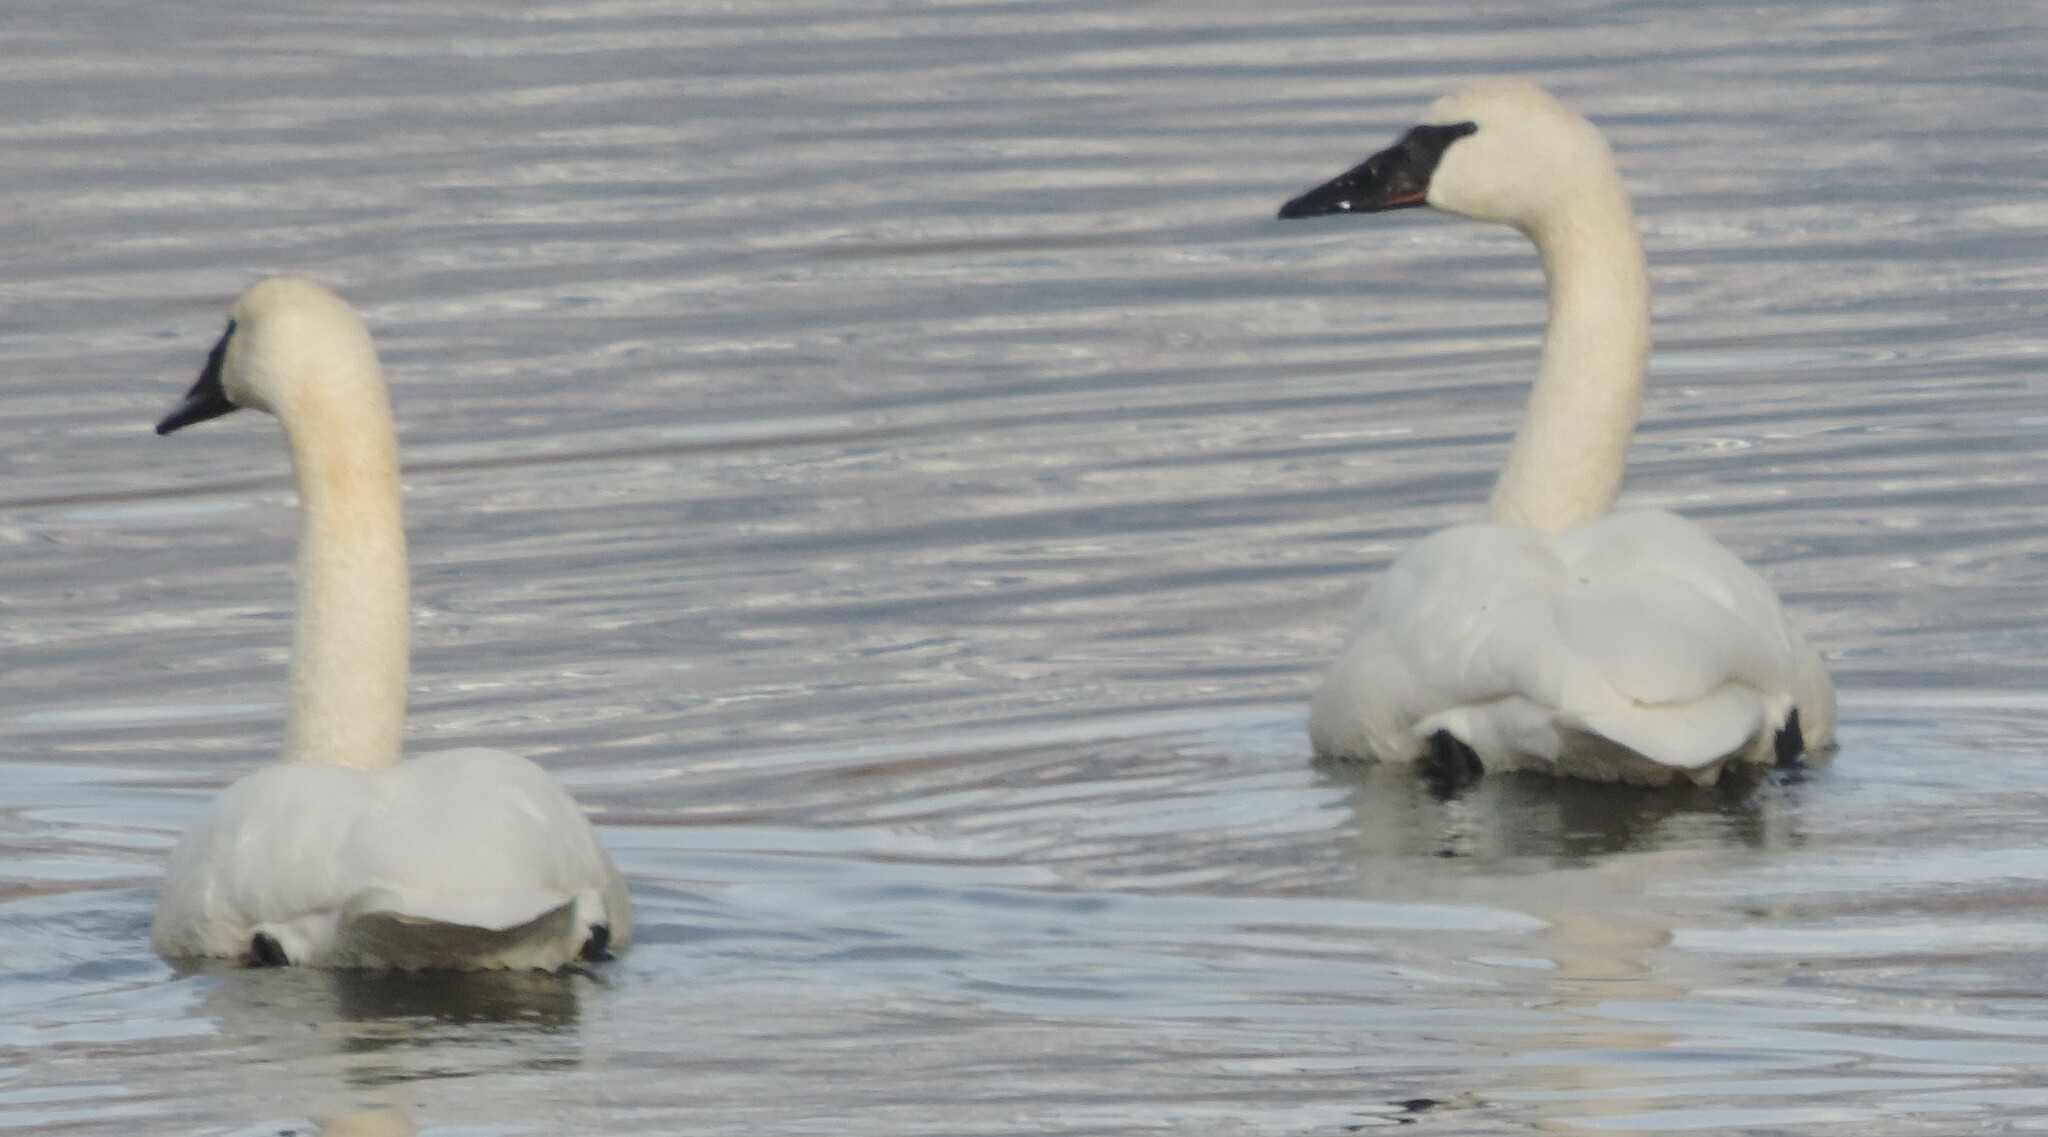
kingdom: Animalia
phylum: Chordata
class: Aves
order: Anseriformes
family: Anatidae
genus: Cygnus
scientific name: Cygnus buccinator
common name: Trumpeter swan
